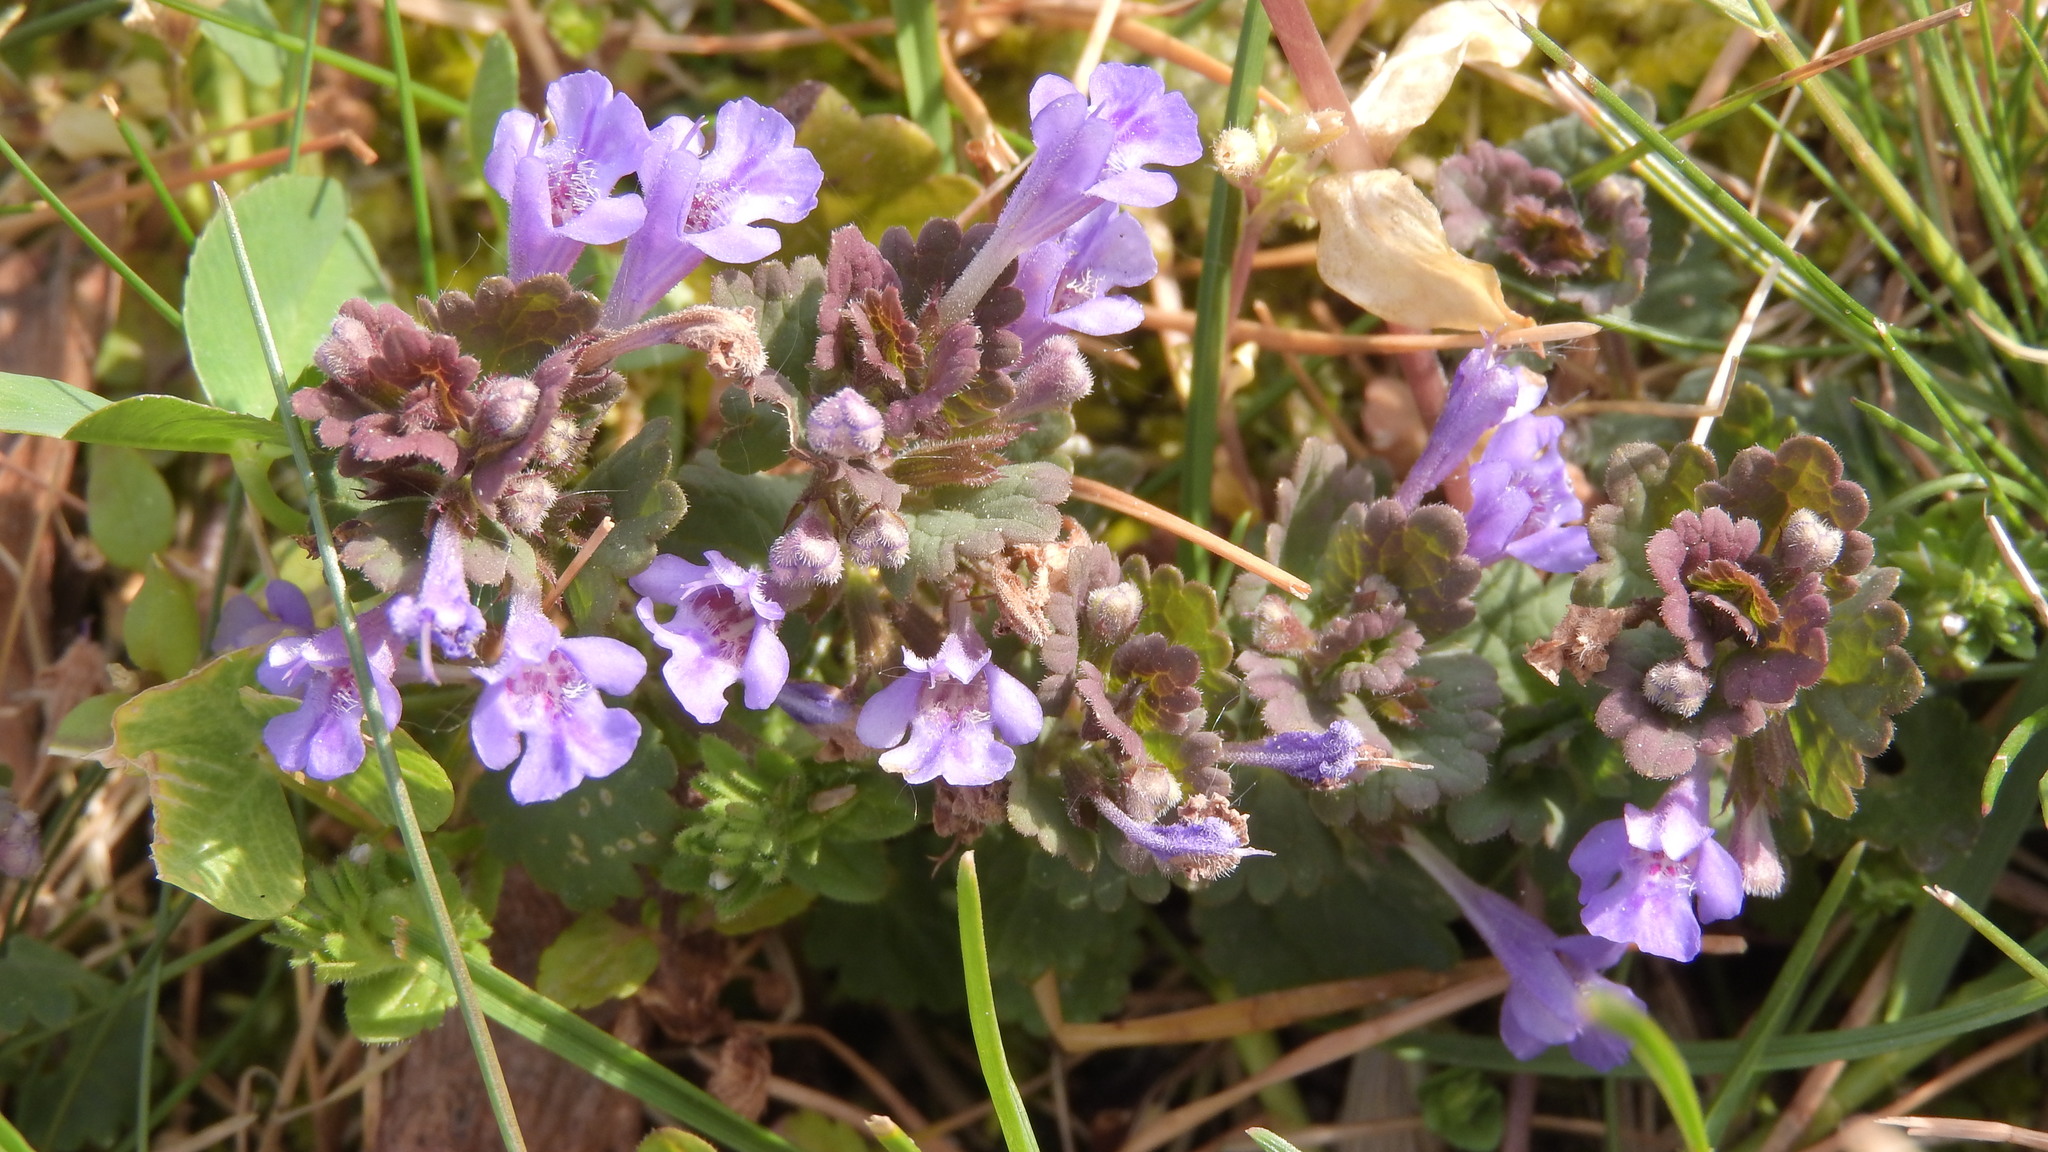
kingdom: Plantae
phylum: Tracheophyta
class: Magnoliopsida
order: Lamiales
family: Lamiaceae
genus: Glechoma
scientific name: Glechoma hederacea
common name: Ground ivy
